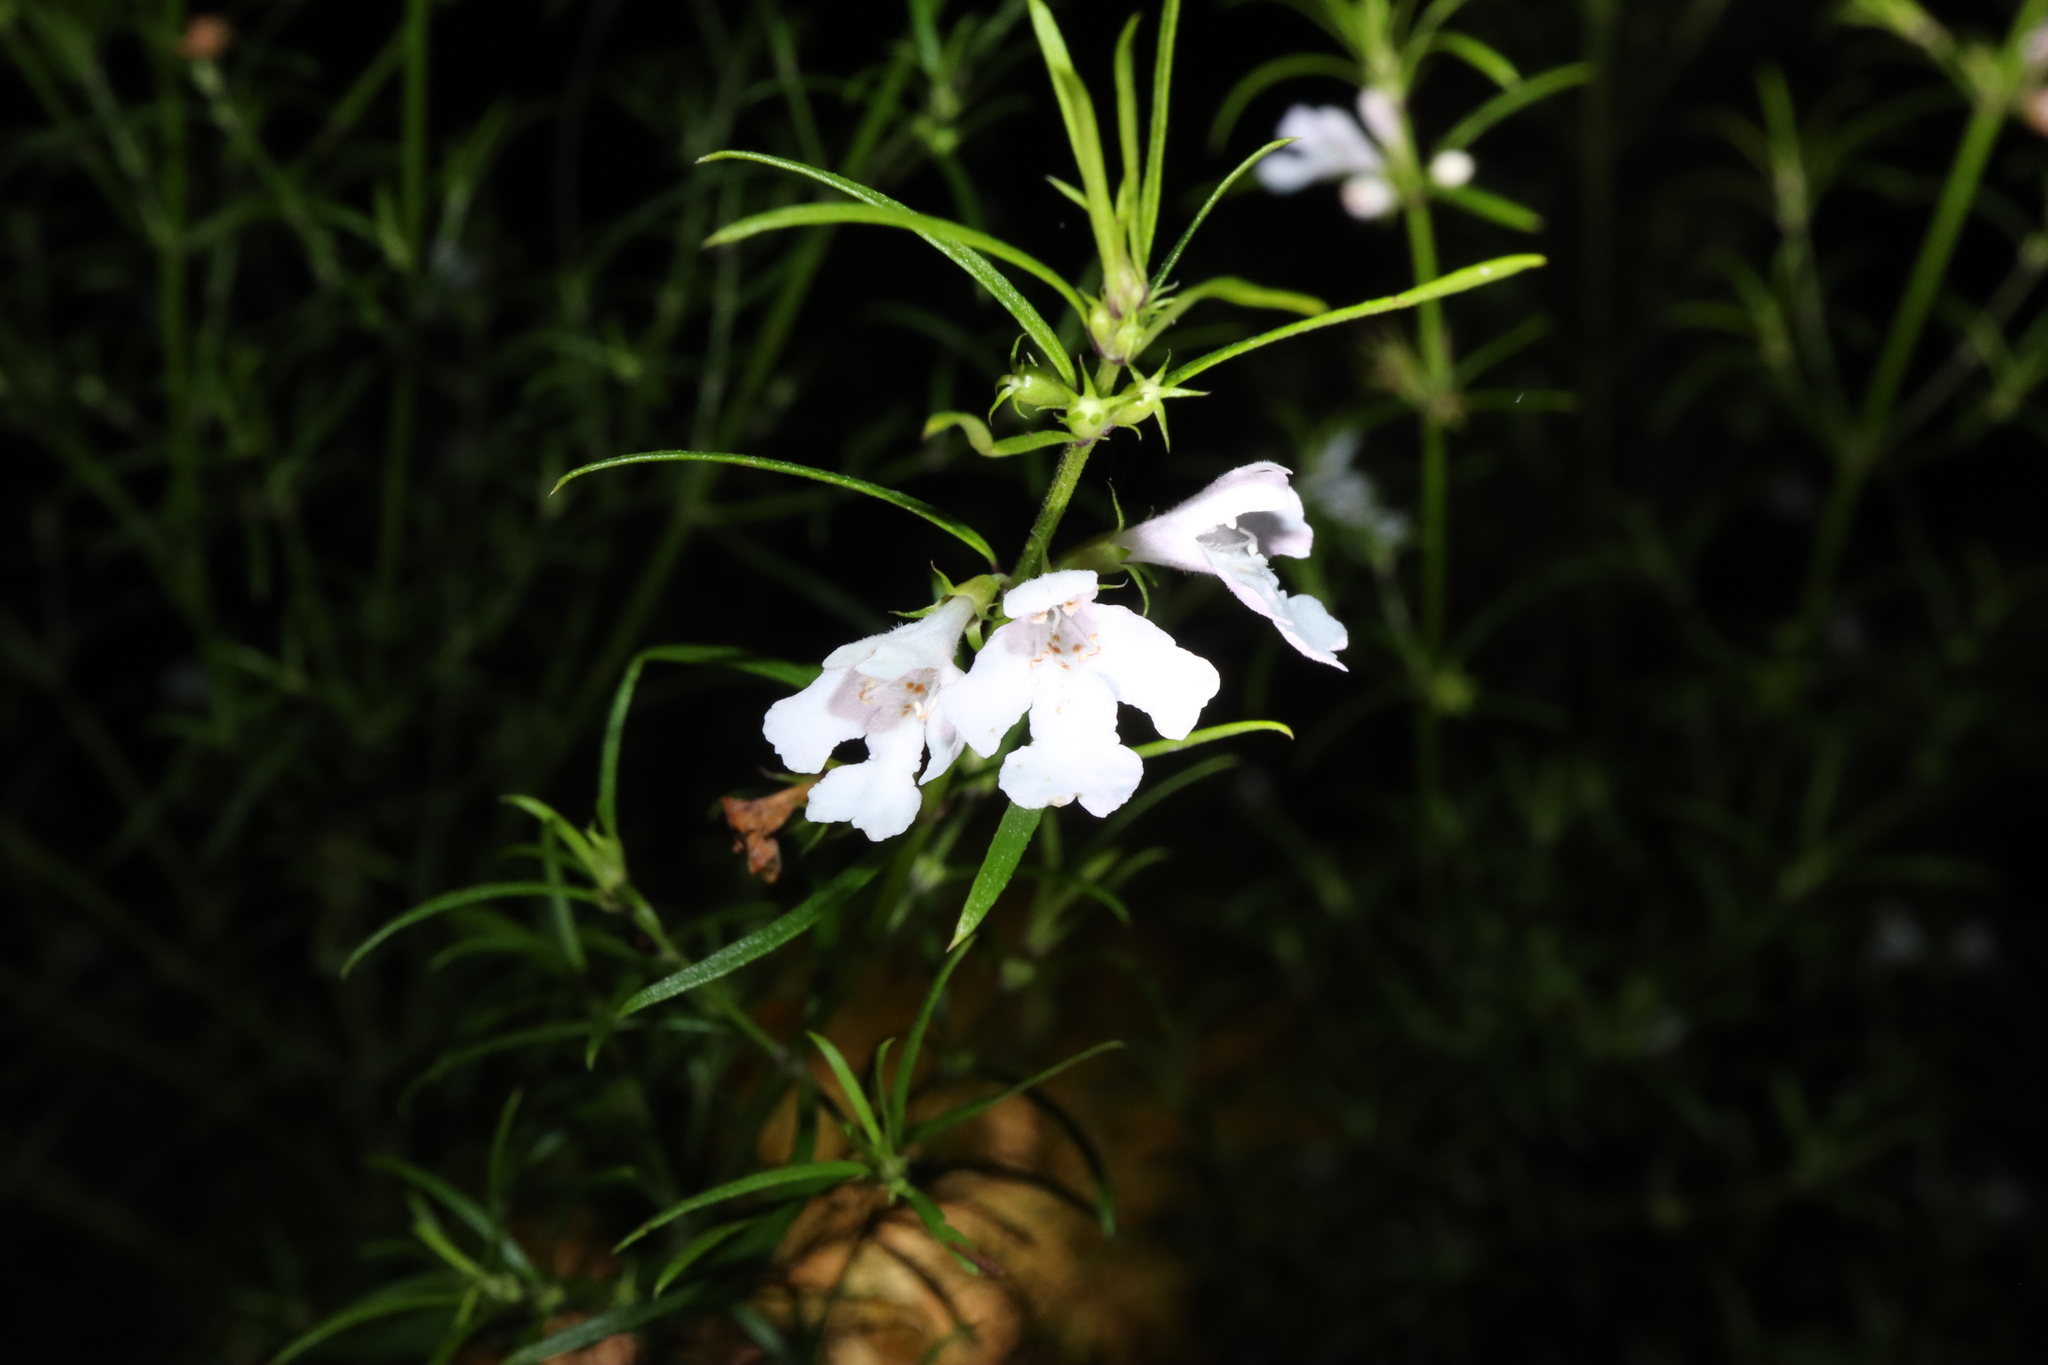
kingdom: Plantae
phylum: Tracheophyta
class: Magnoliopsida
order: Lamiales
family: Lamiaceae
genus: Westringia
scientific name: Westringia longifolia
